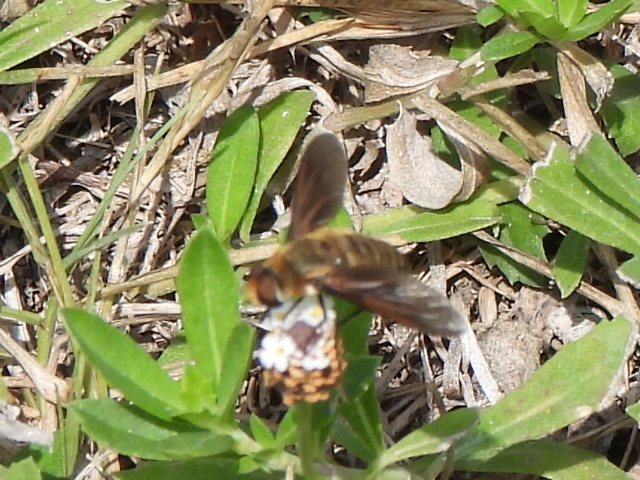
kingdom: Animalia
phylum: Arthropoda
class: Insecta
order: Diptera
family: Bombyliidae
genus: Poecilanthrax
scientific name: Poecilanthrax lucifer
